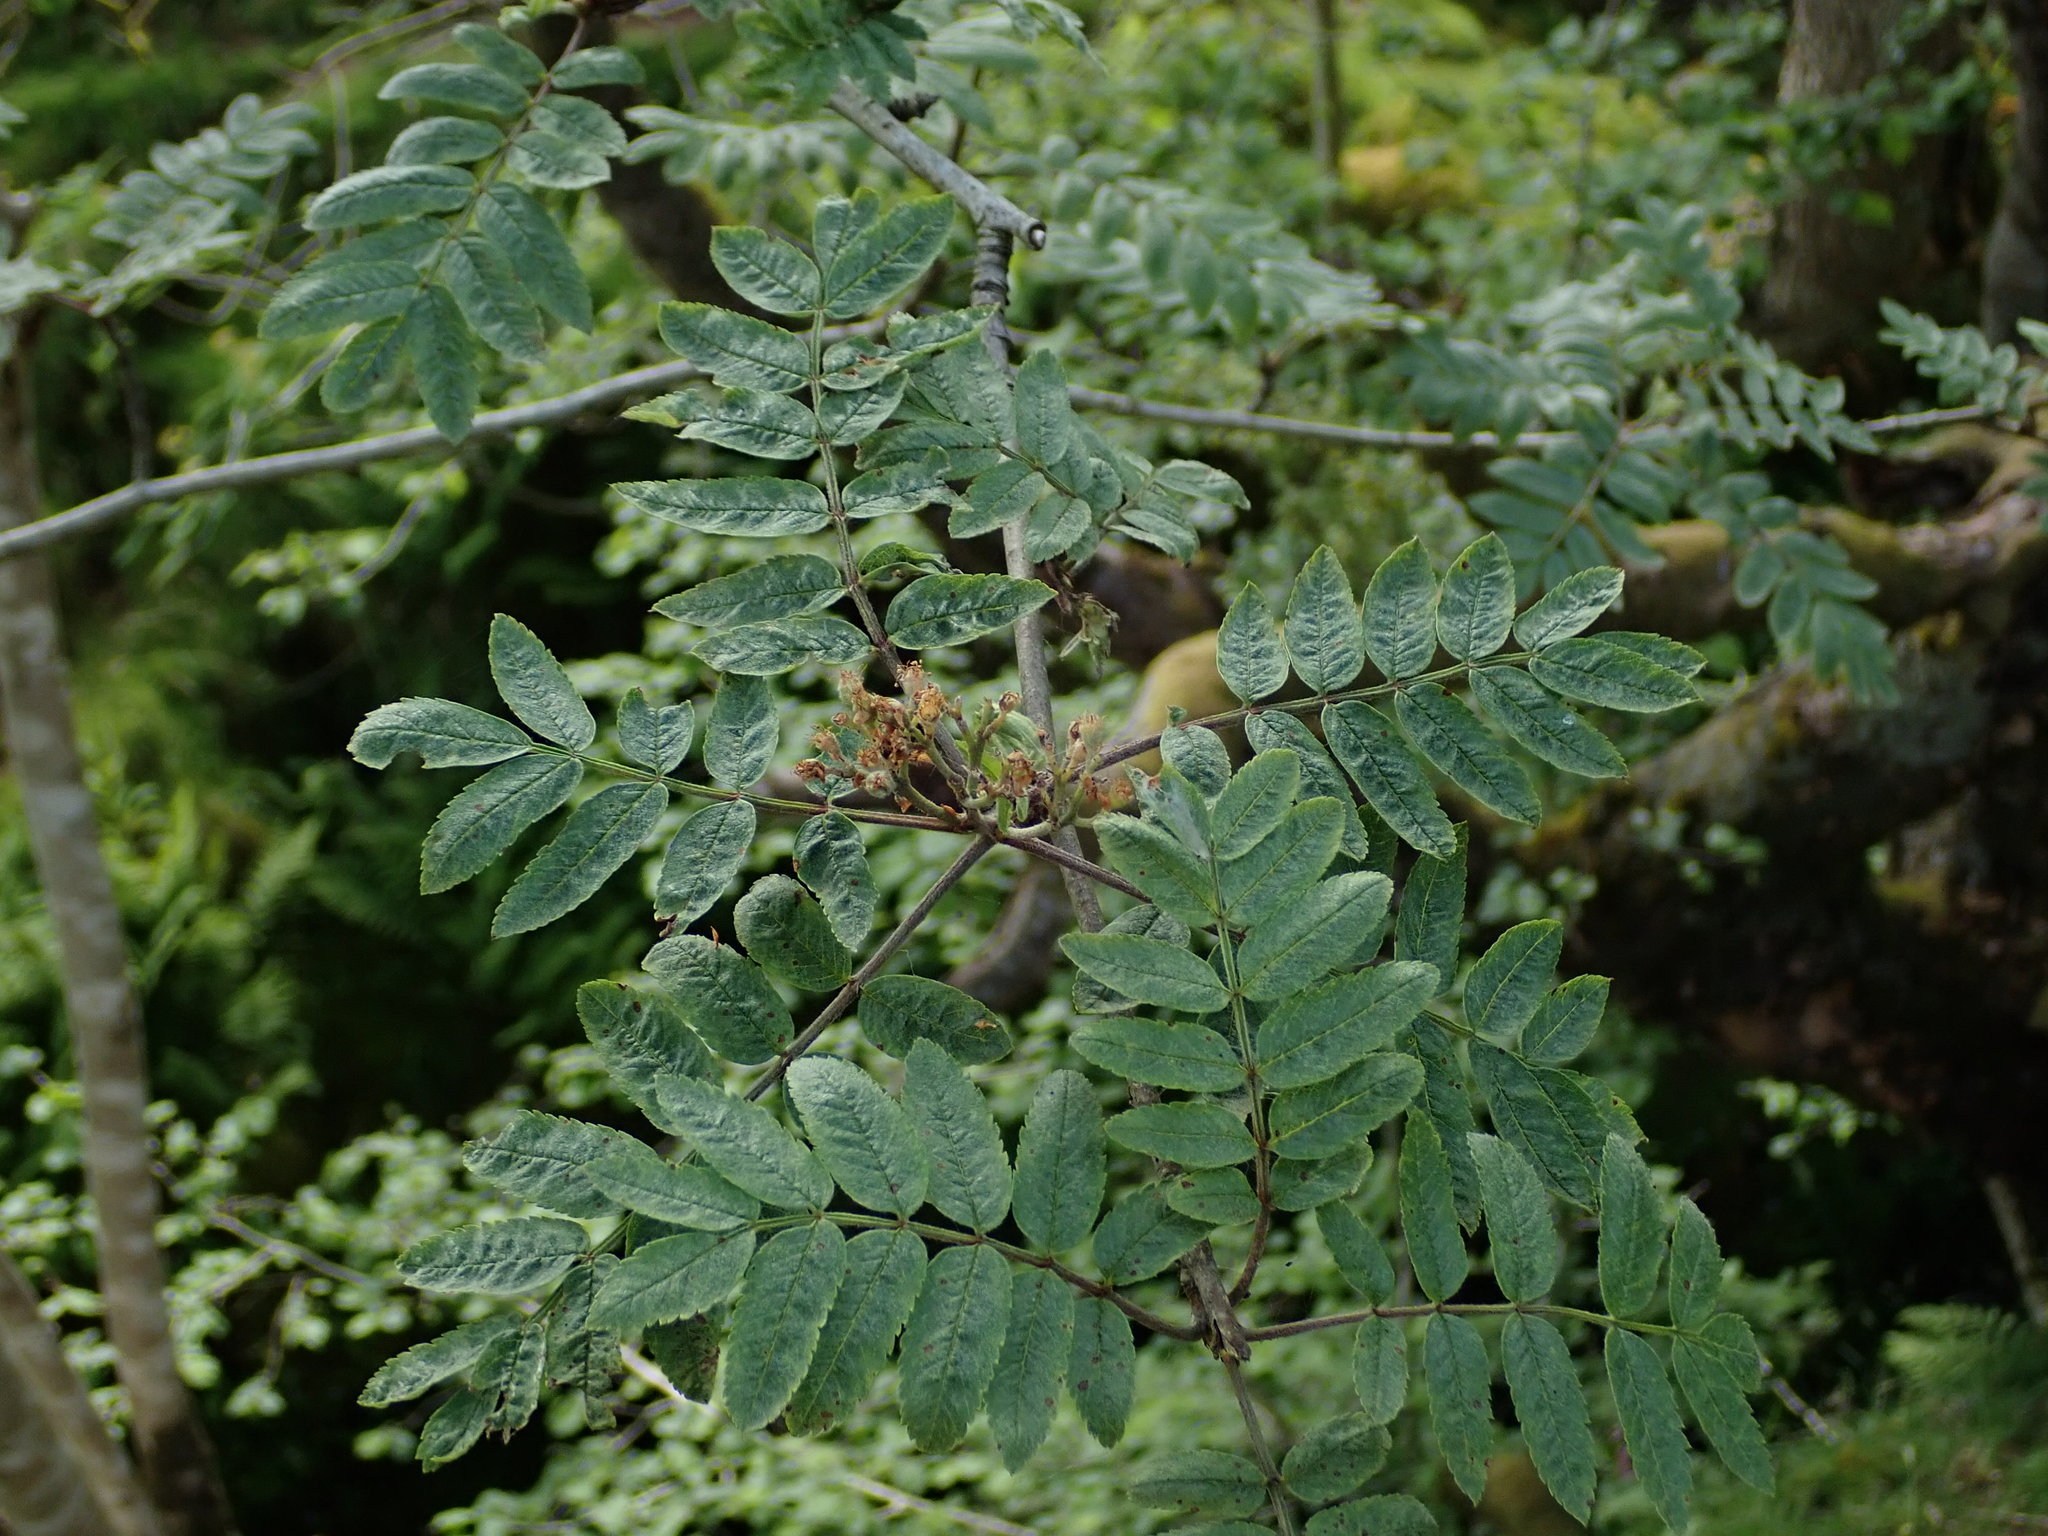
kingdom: Plantae
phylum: Tracheophyta
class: Magnoliopsida
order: Rosales
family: Rosaceae
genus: Sorbus
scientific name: Sorbus aucuparia
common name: Rowan
